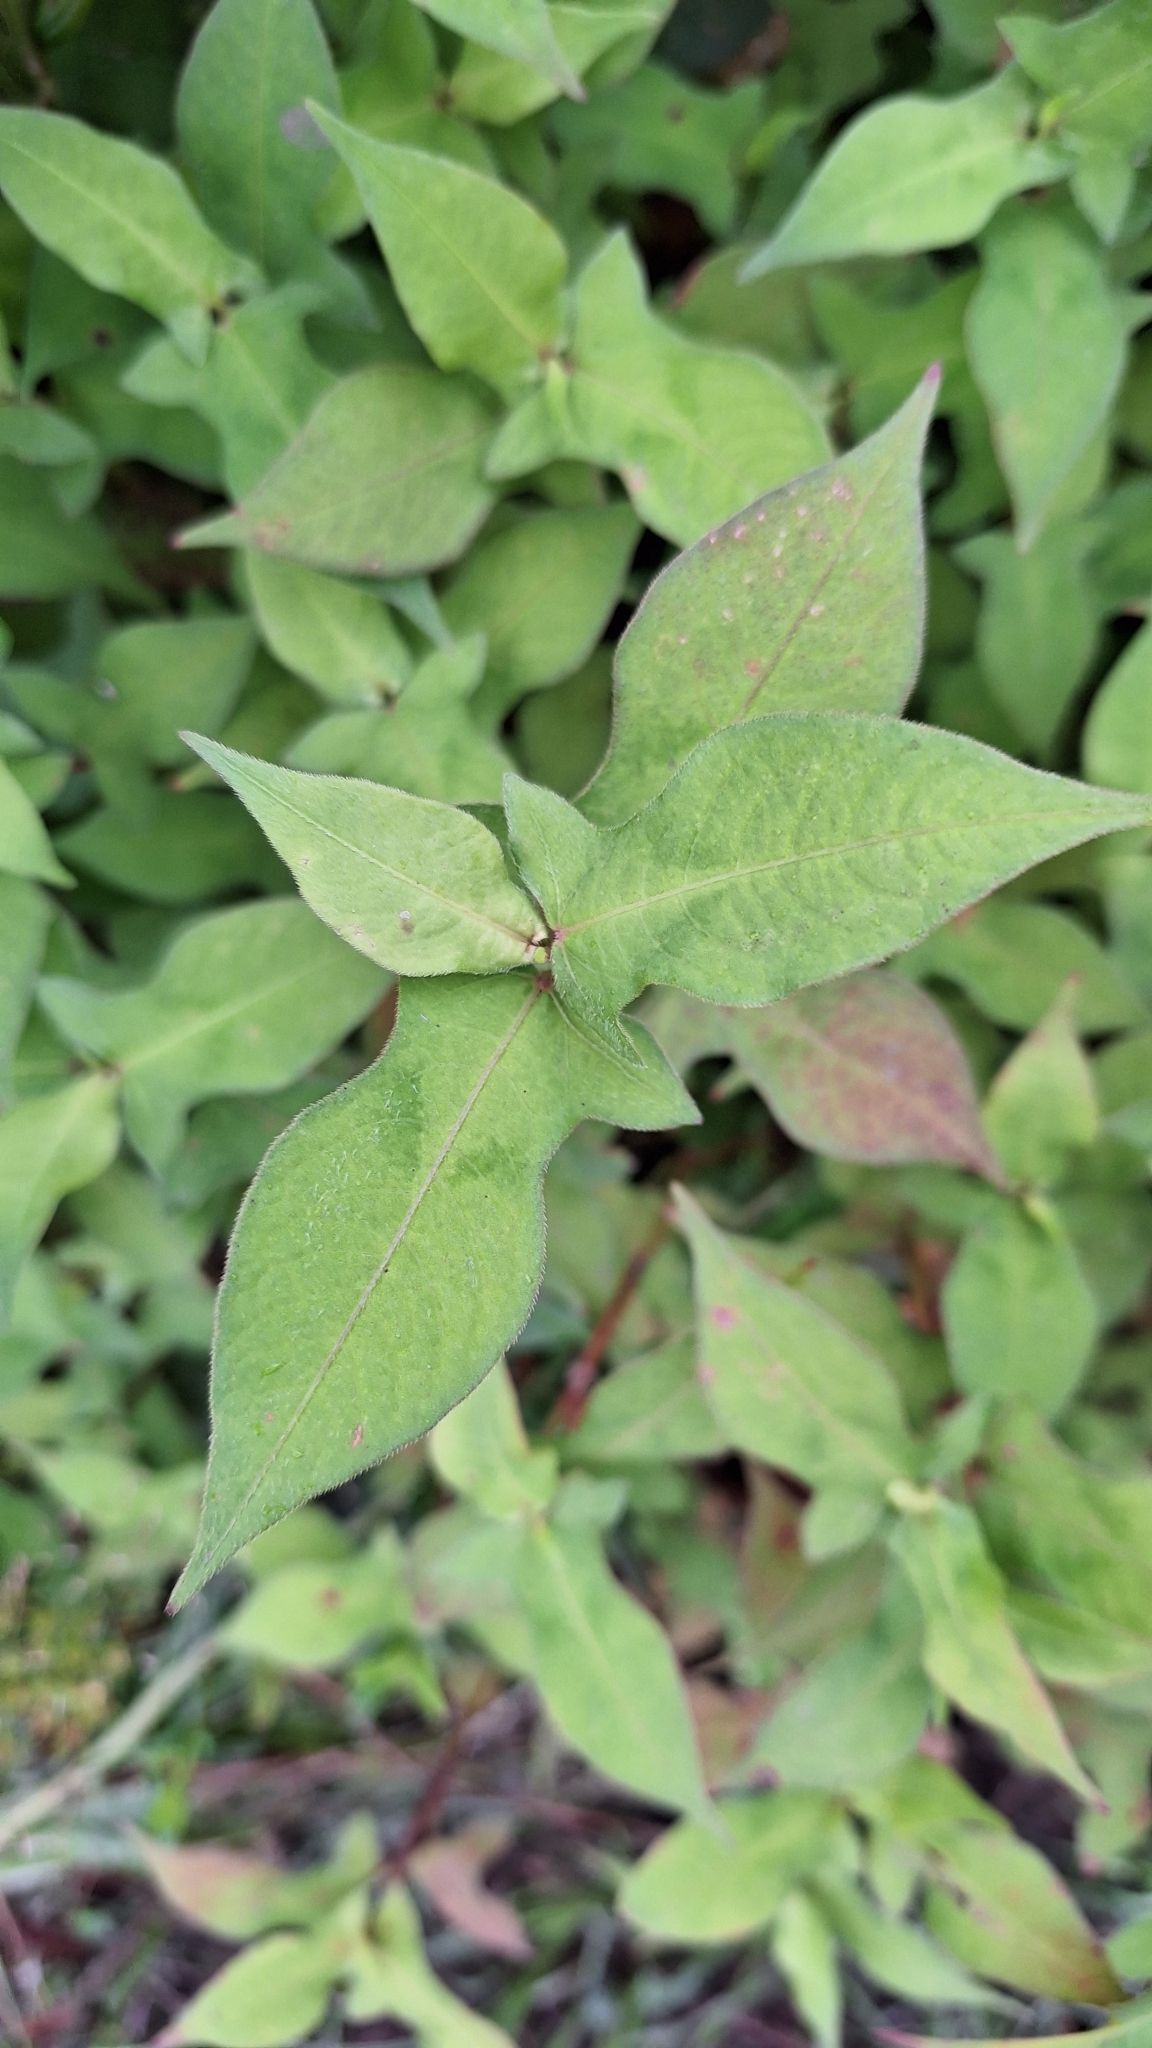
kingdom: Plantae
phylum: Tracheophyta
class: Magnoliopsida
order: Caryophyllales
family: Polygonaceae
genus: Persicaria
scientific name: Persicaria thunbergii
